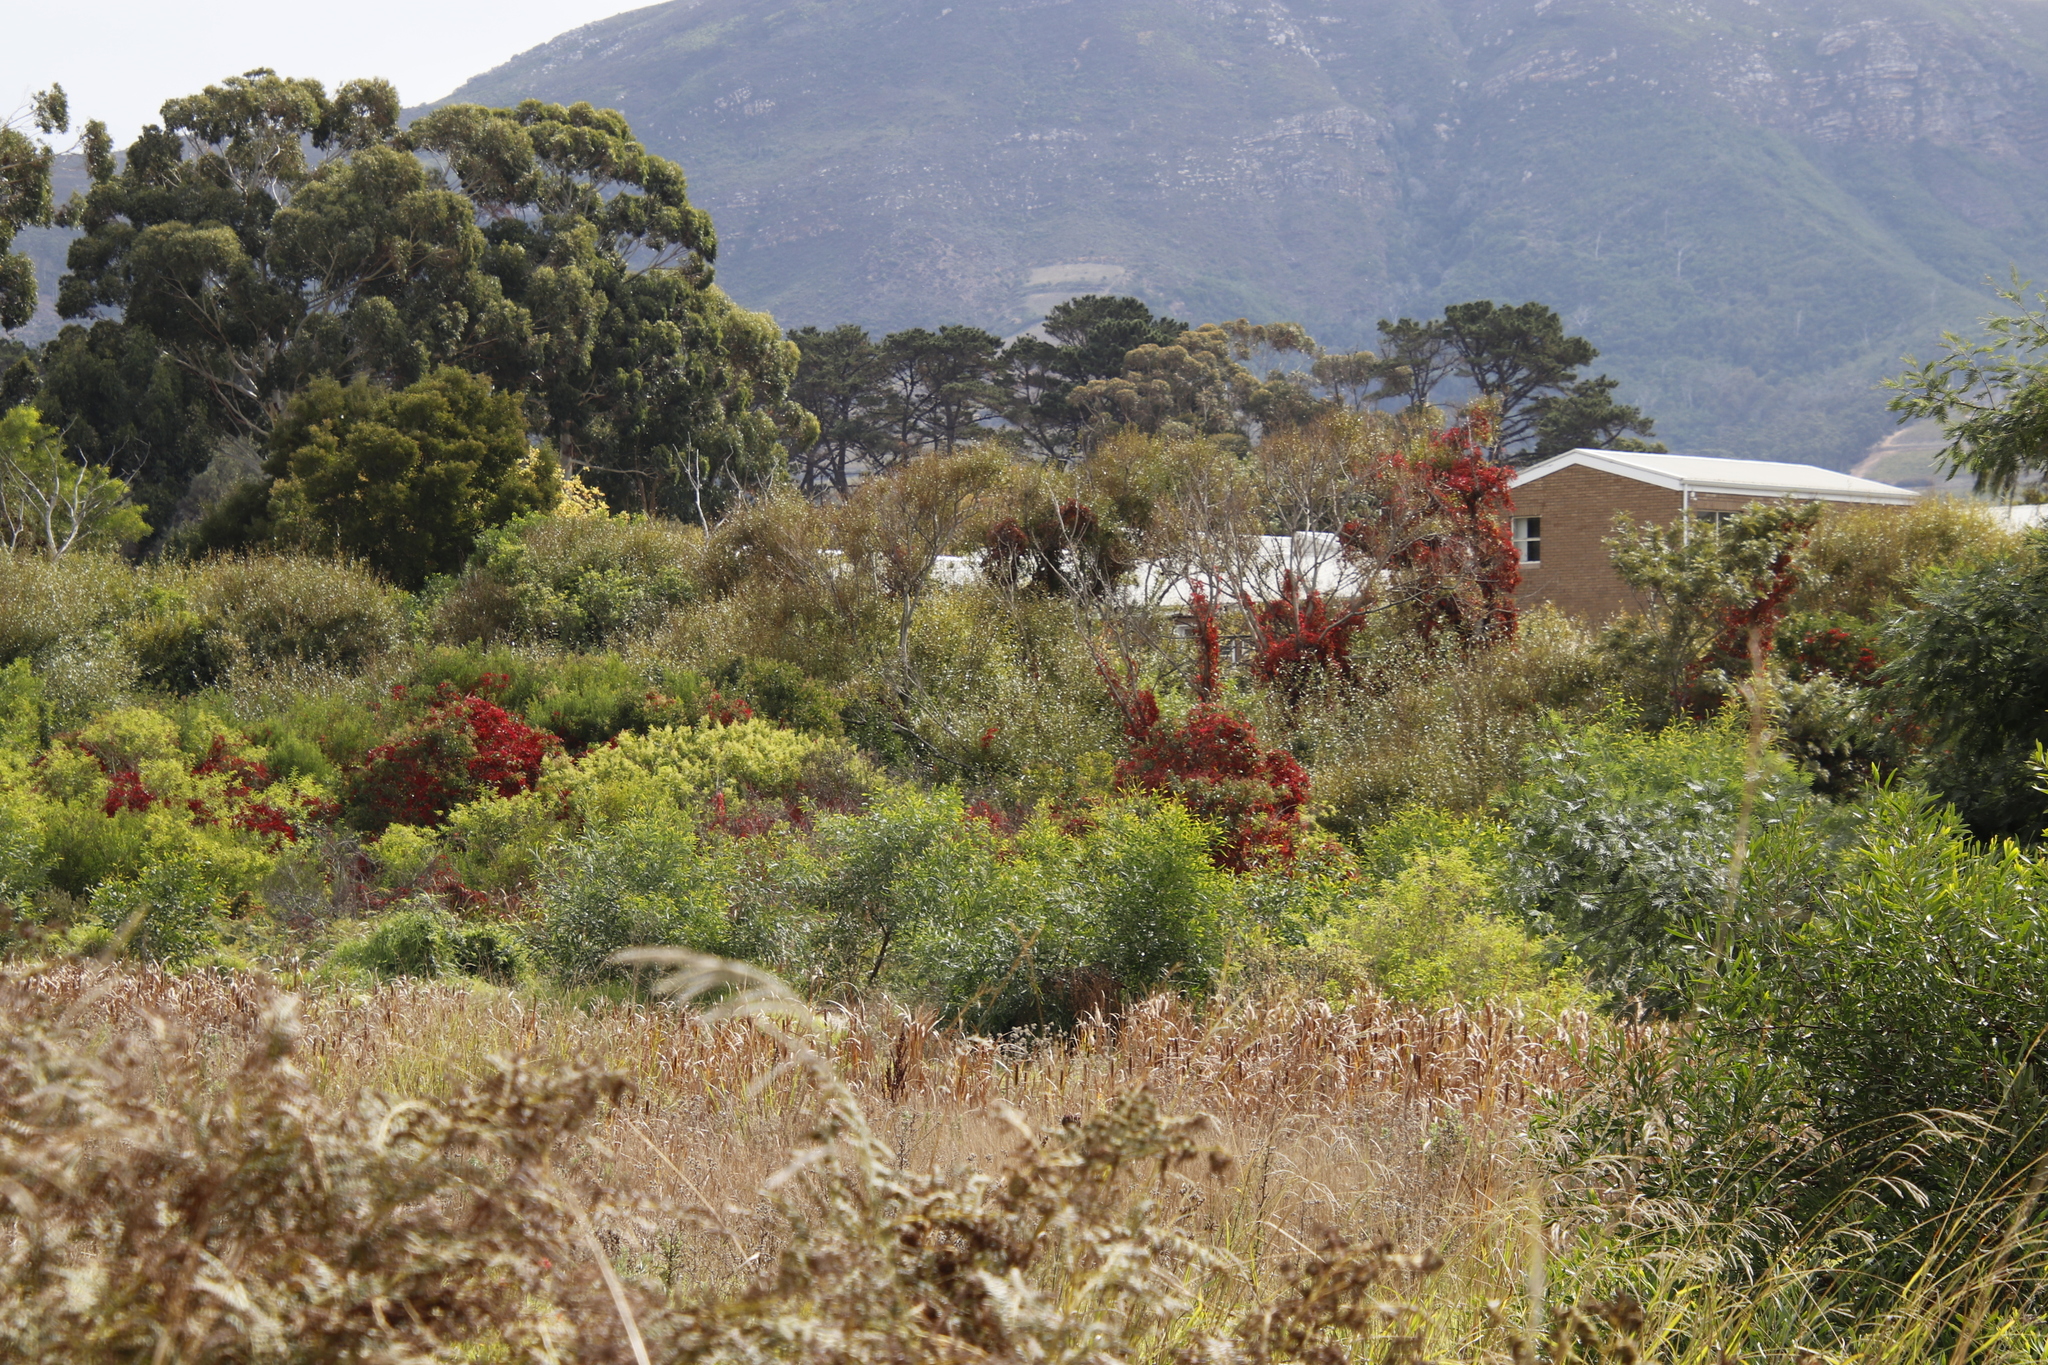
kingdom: Plantae
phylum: Tracheophyta
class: Magnoliopsida
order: Vitales
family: Vitaceae
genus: Parthenocissus
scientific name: Parthenocissus quinquefolia
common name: Virginia-creeper
